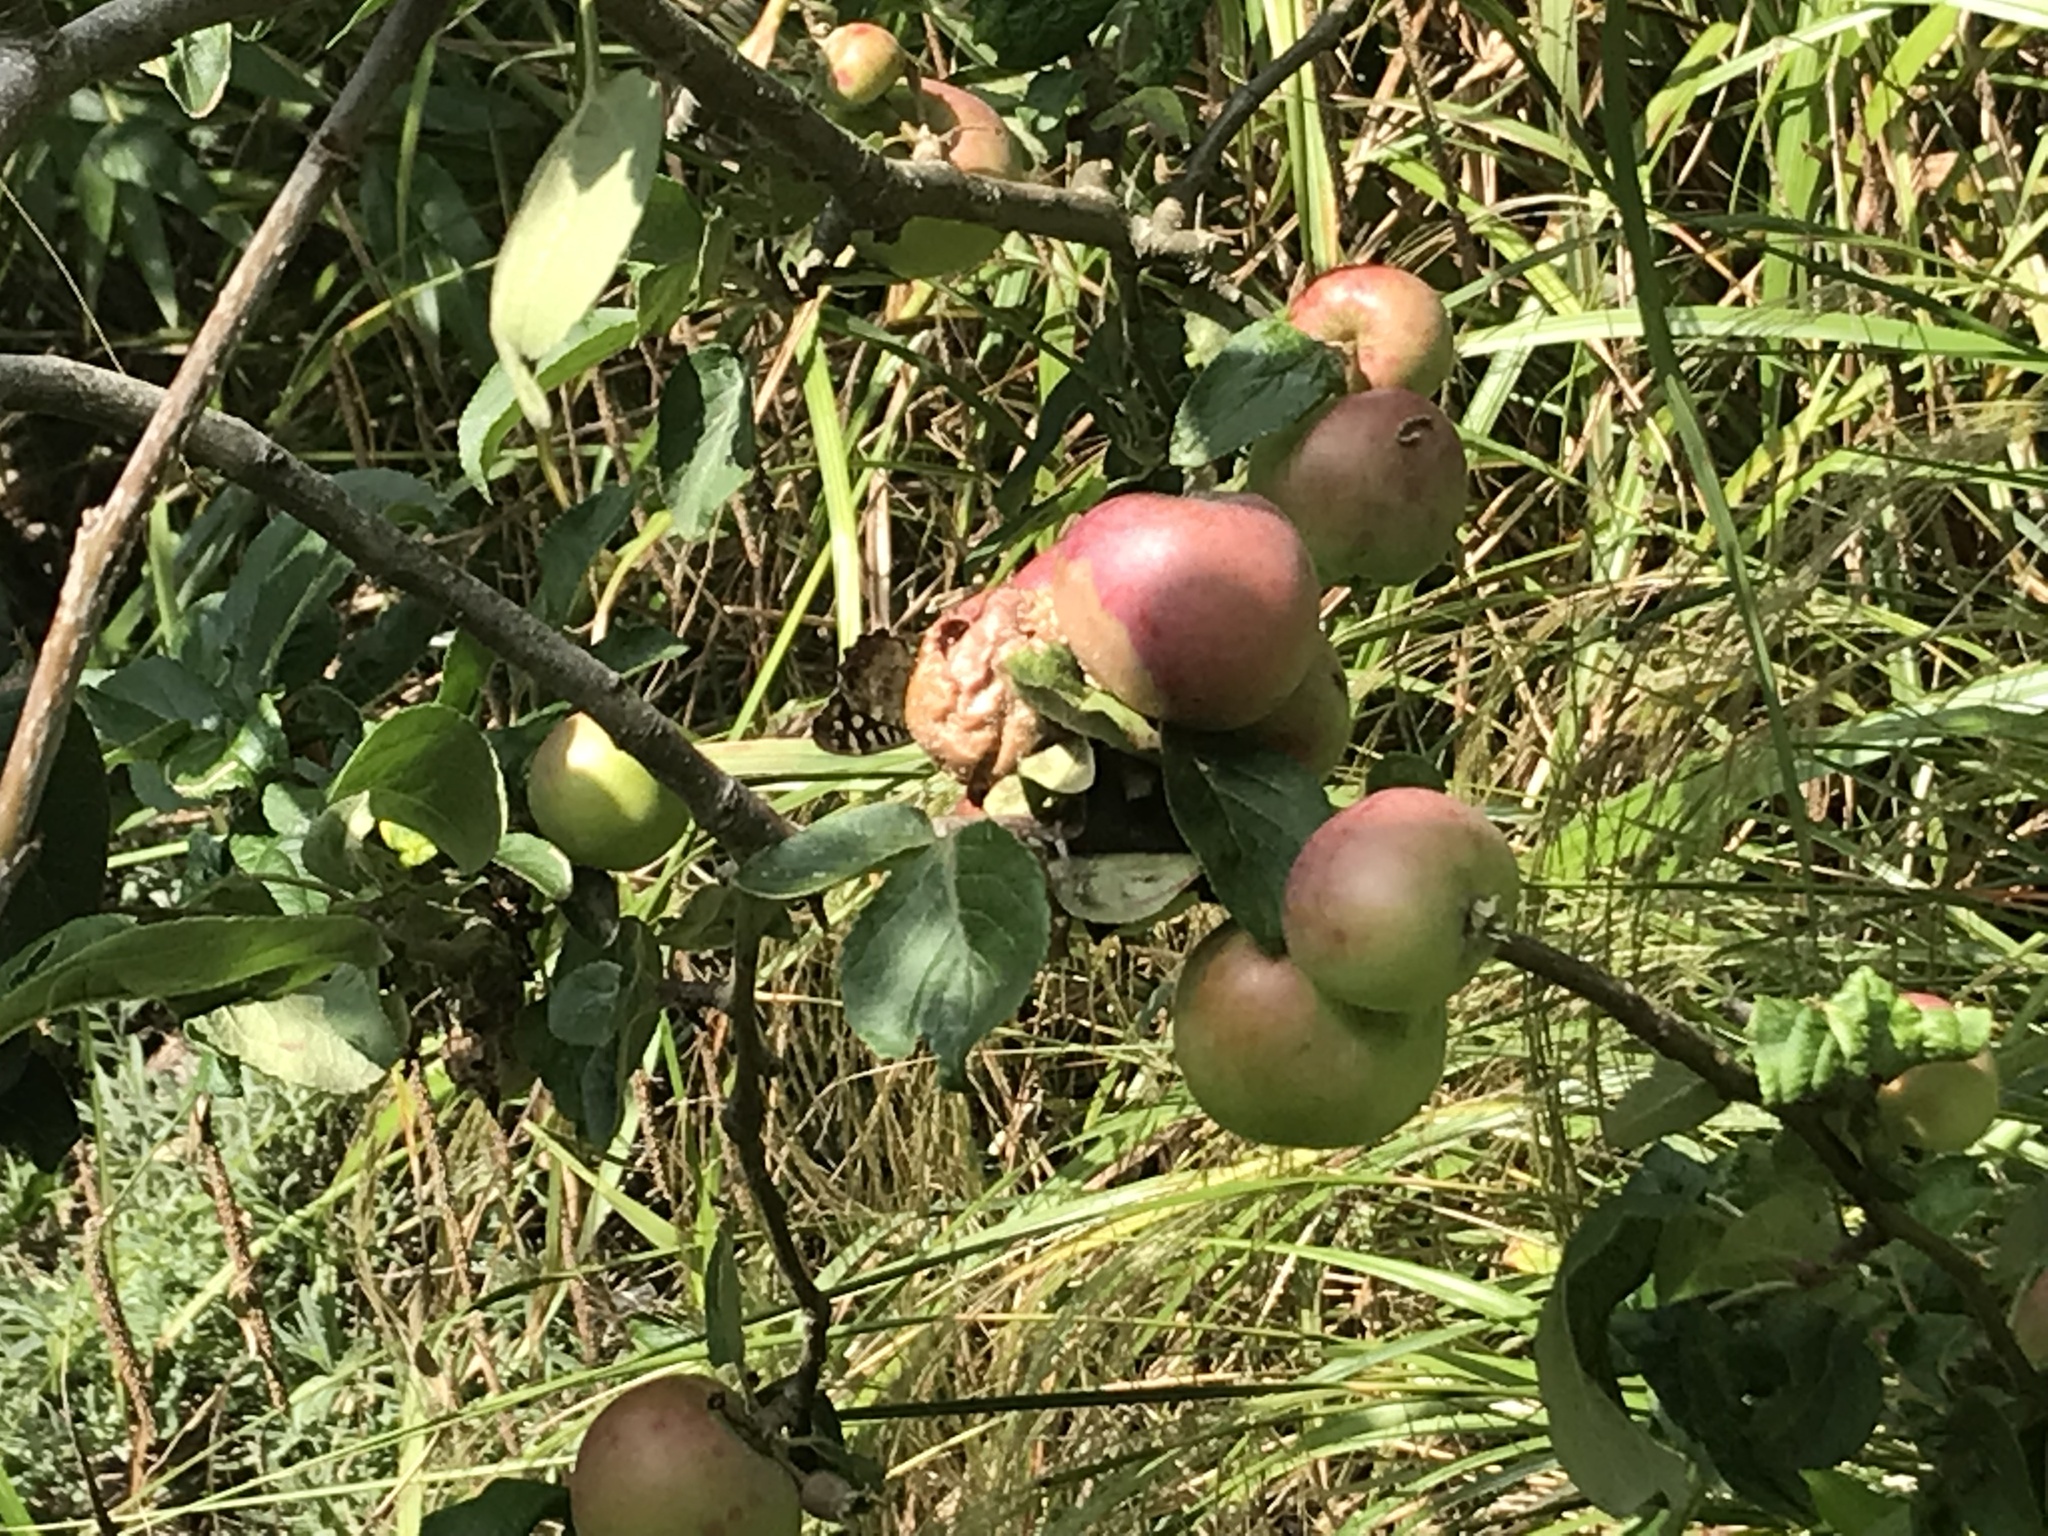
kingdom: Animalia
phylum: Arthropoda
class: Insecta
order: Lepidoptera
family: Nymphalidae
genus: Pararge
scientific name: Pararge aegeria
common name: Speckled wood
